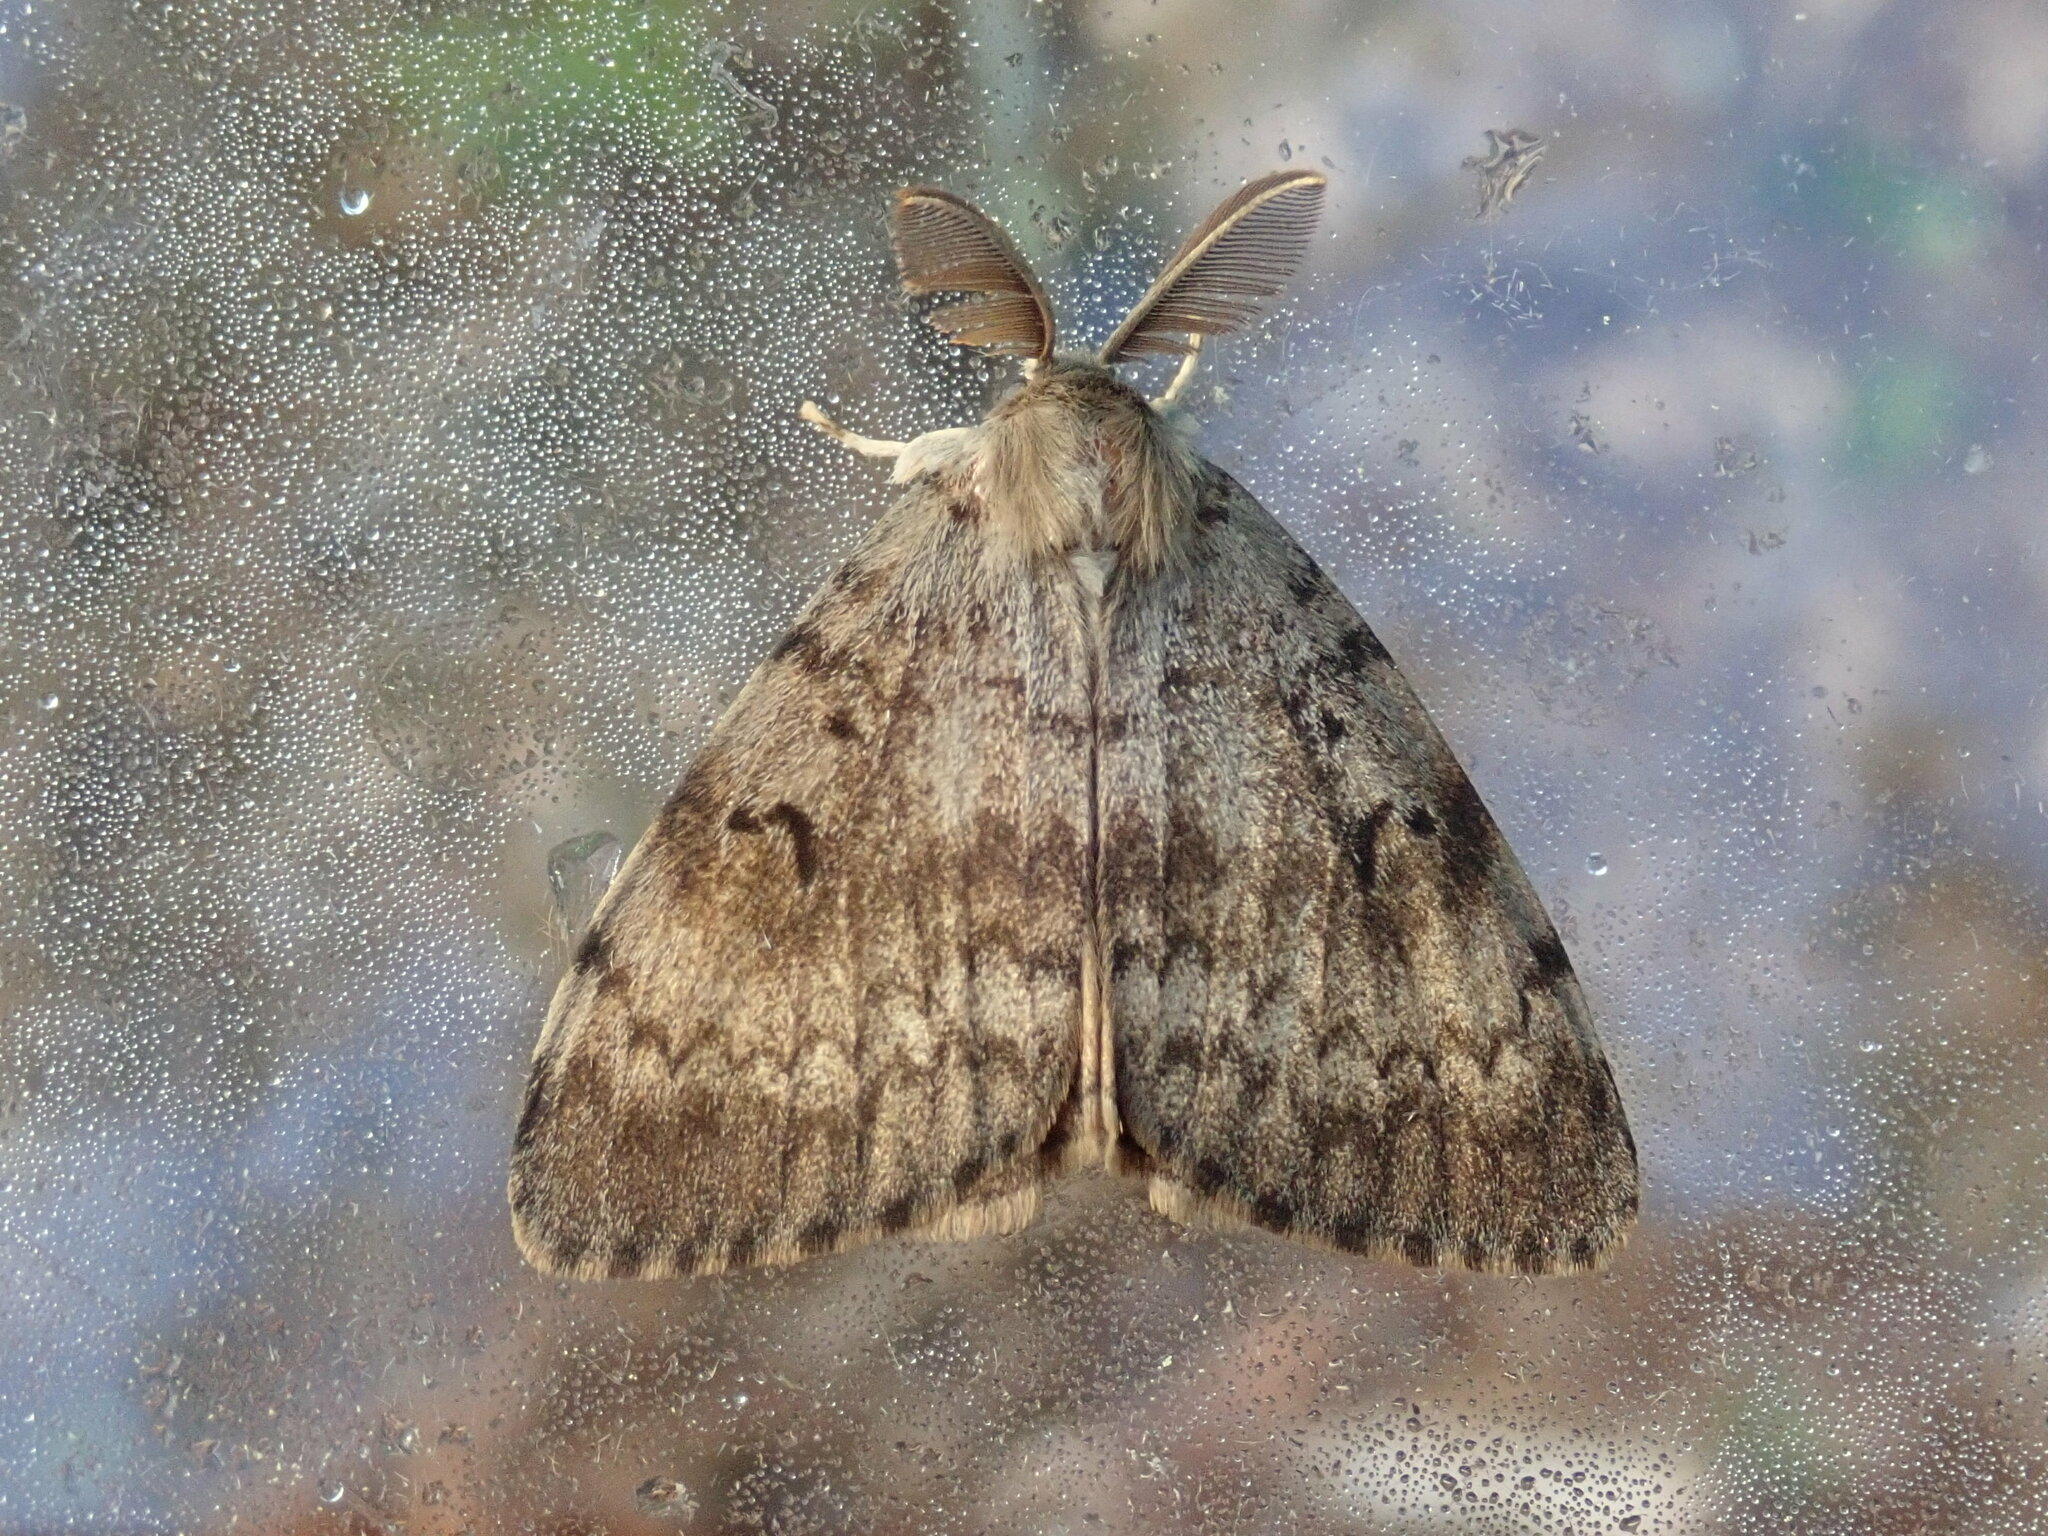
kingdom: Animalia
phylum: Arthropoda
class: Insecta
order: Lepidoptera
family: Erebidae
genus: Lymantria
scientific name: Lymantria dispar
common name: Gypsy moth
